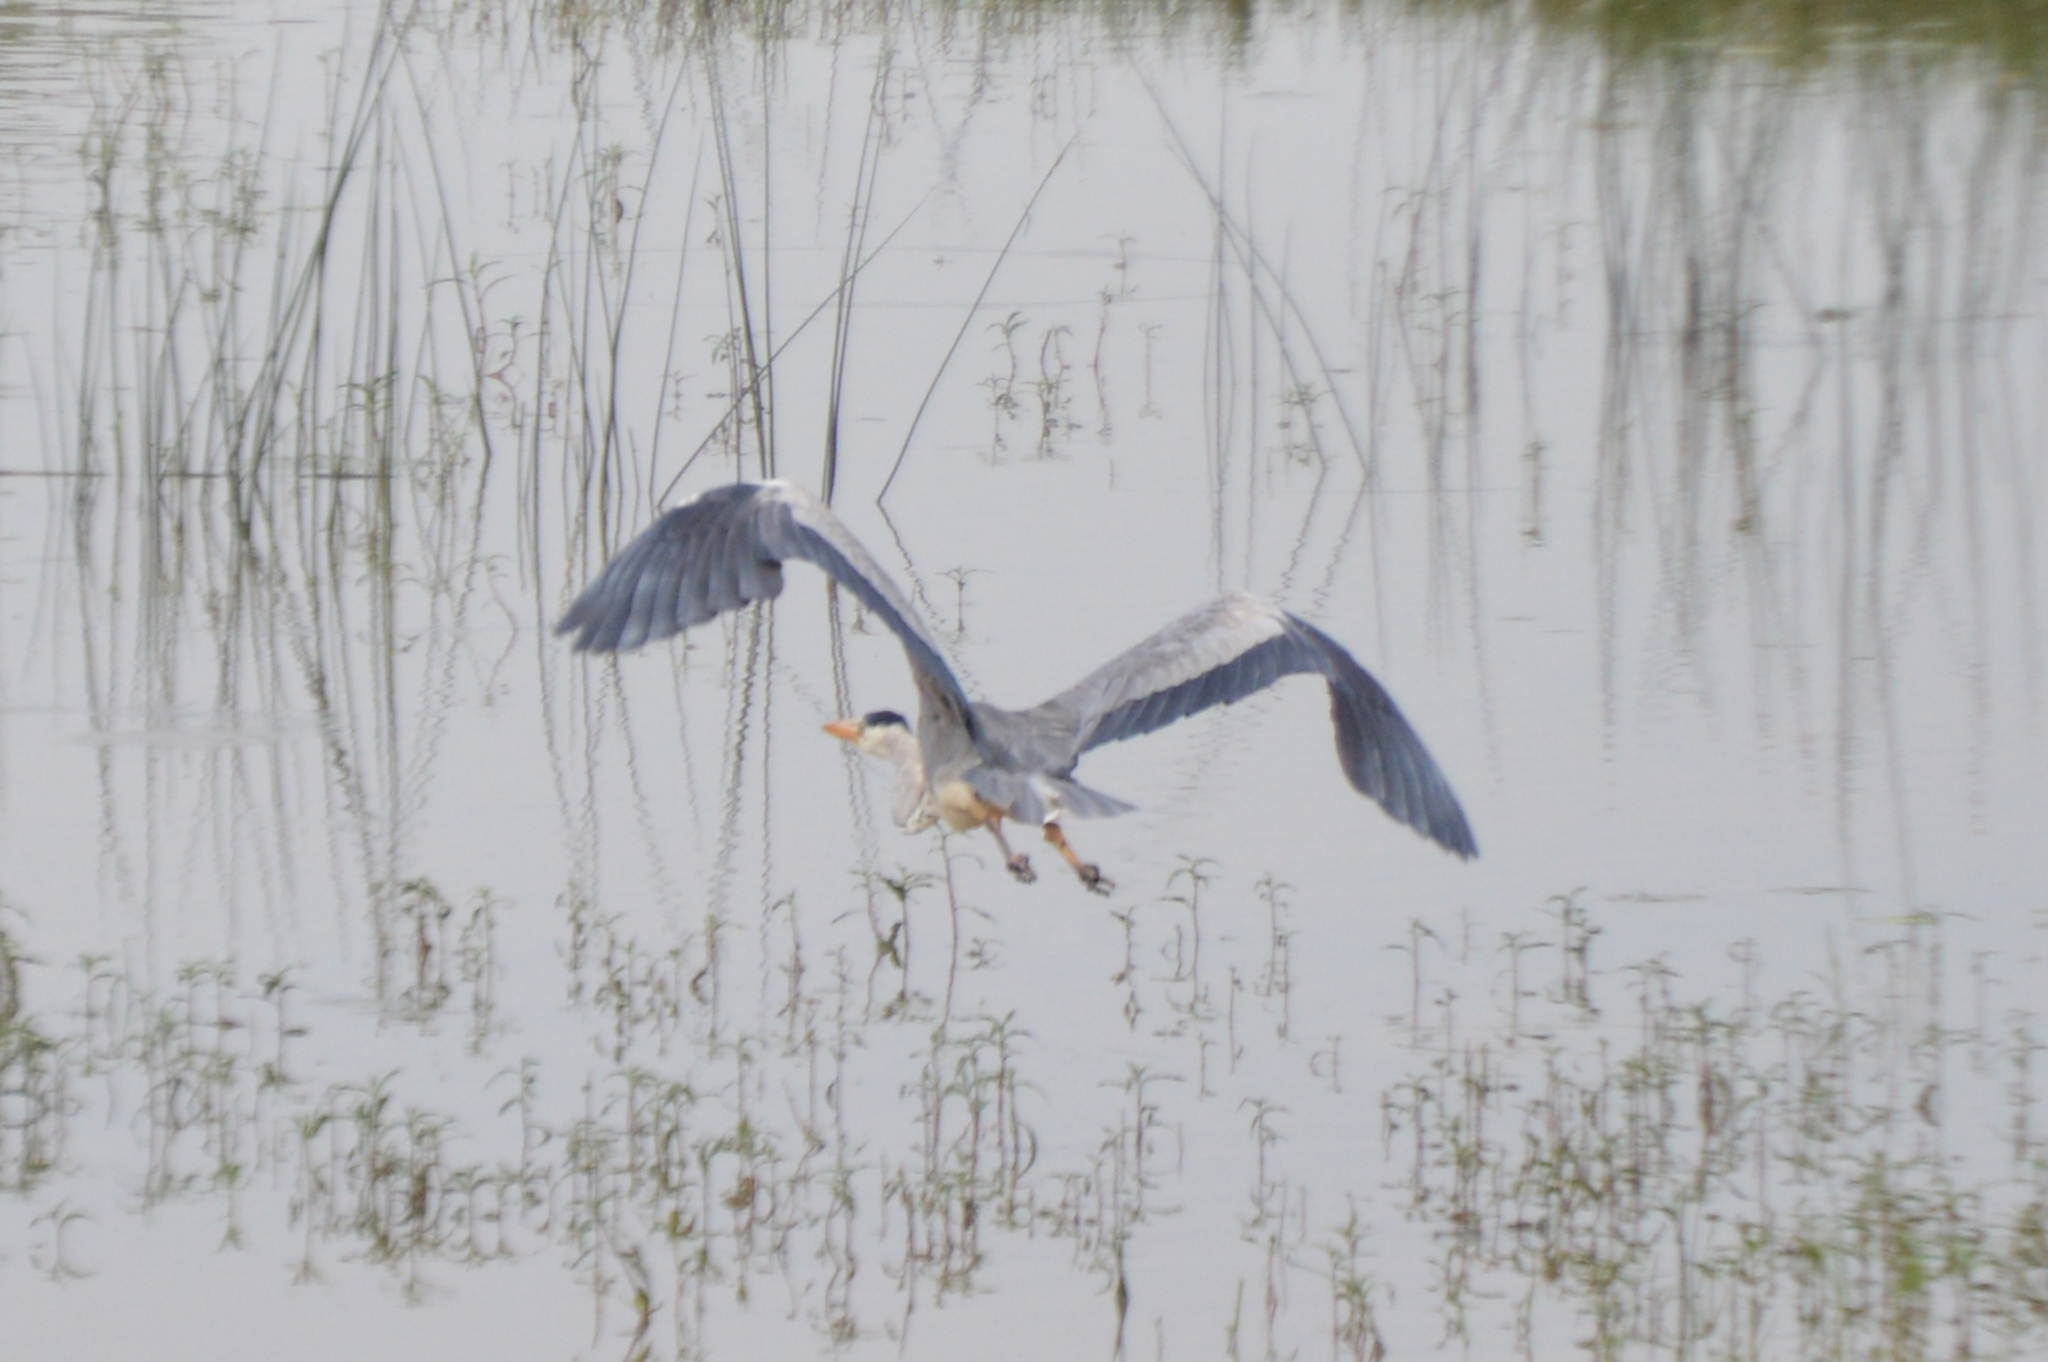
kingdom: Animalia
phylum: Chordata
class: Aves
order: Pelecaniformes
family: Ardeidae
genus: Ardea
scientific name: Ardea cinerea
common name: Grey heron
